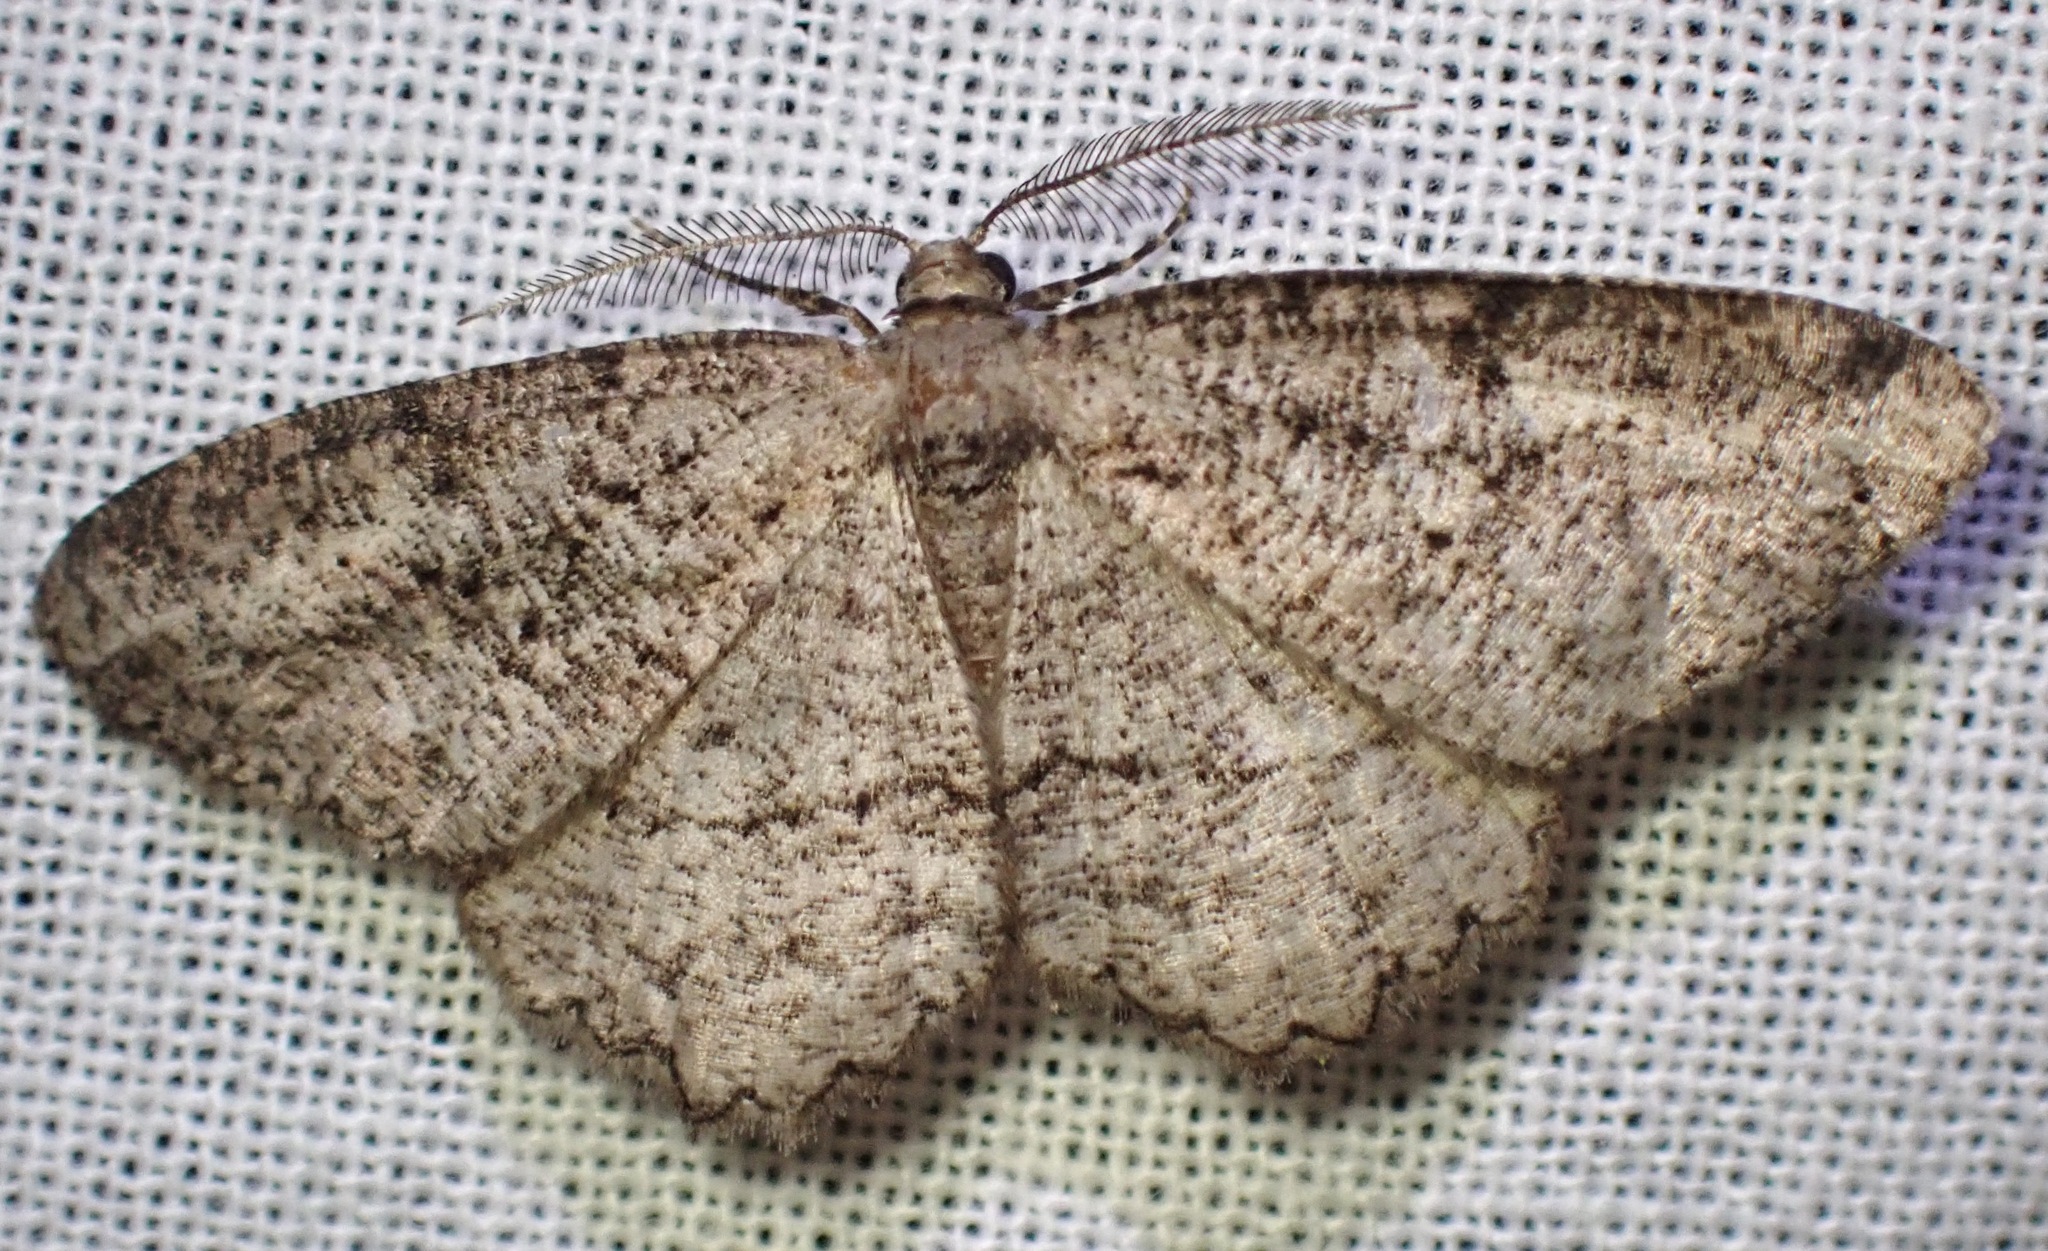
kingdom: Animalia
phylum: Arthropoda
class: Insecta
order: Lepidoptera
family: Geometridae
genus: Neoalcis
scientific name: Neoalcis californiaria
